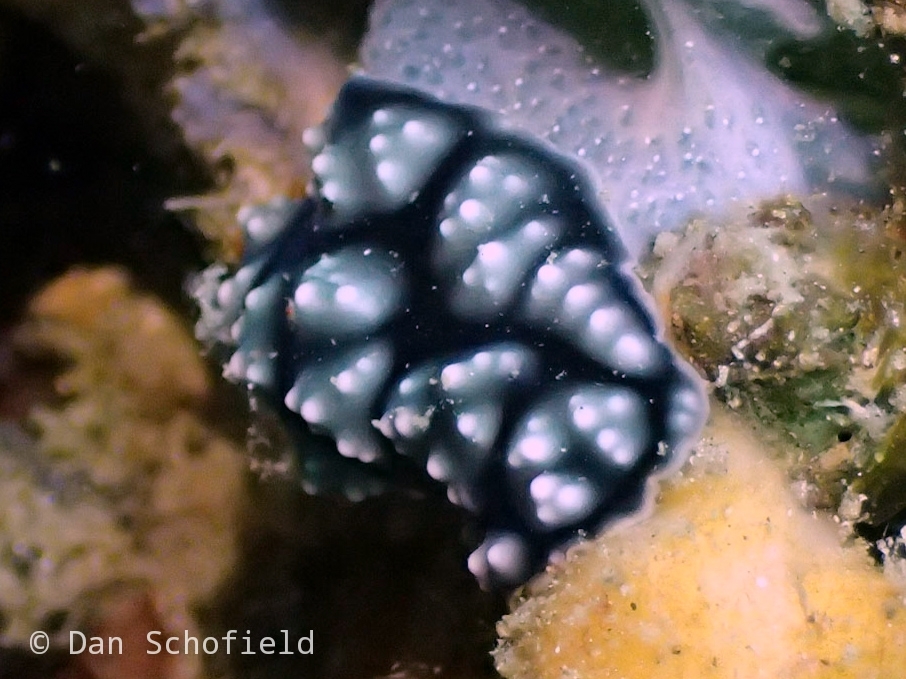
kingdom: Animalia
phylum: Mollusca
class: Gastropoda
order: Nudibranchia
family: Phyllidiidae
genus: Phyllidiella
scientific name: Phyllidiella pustulosa
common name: Pustular phyllidia
